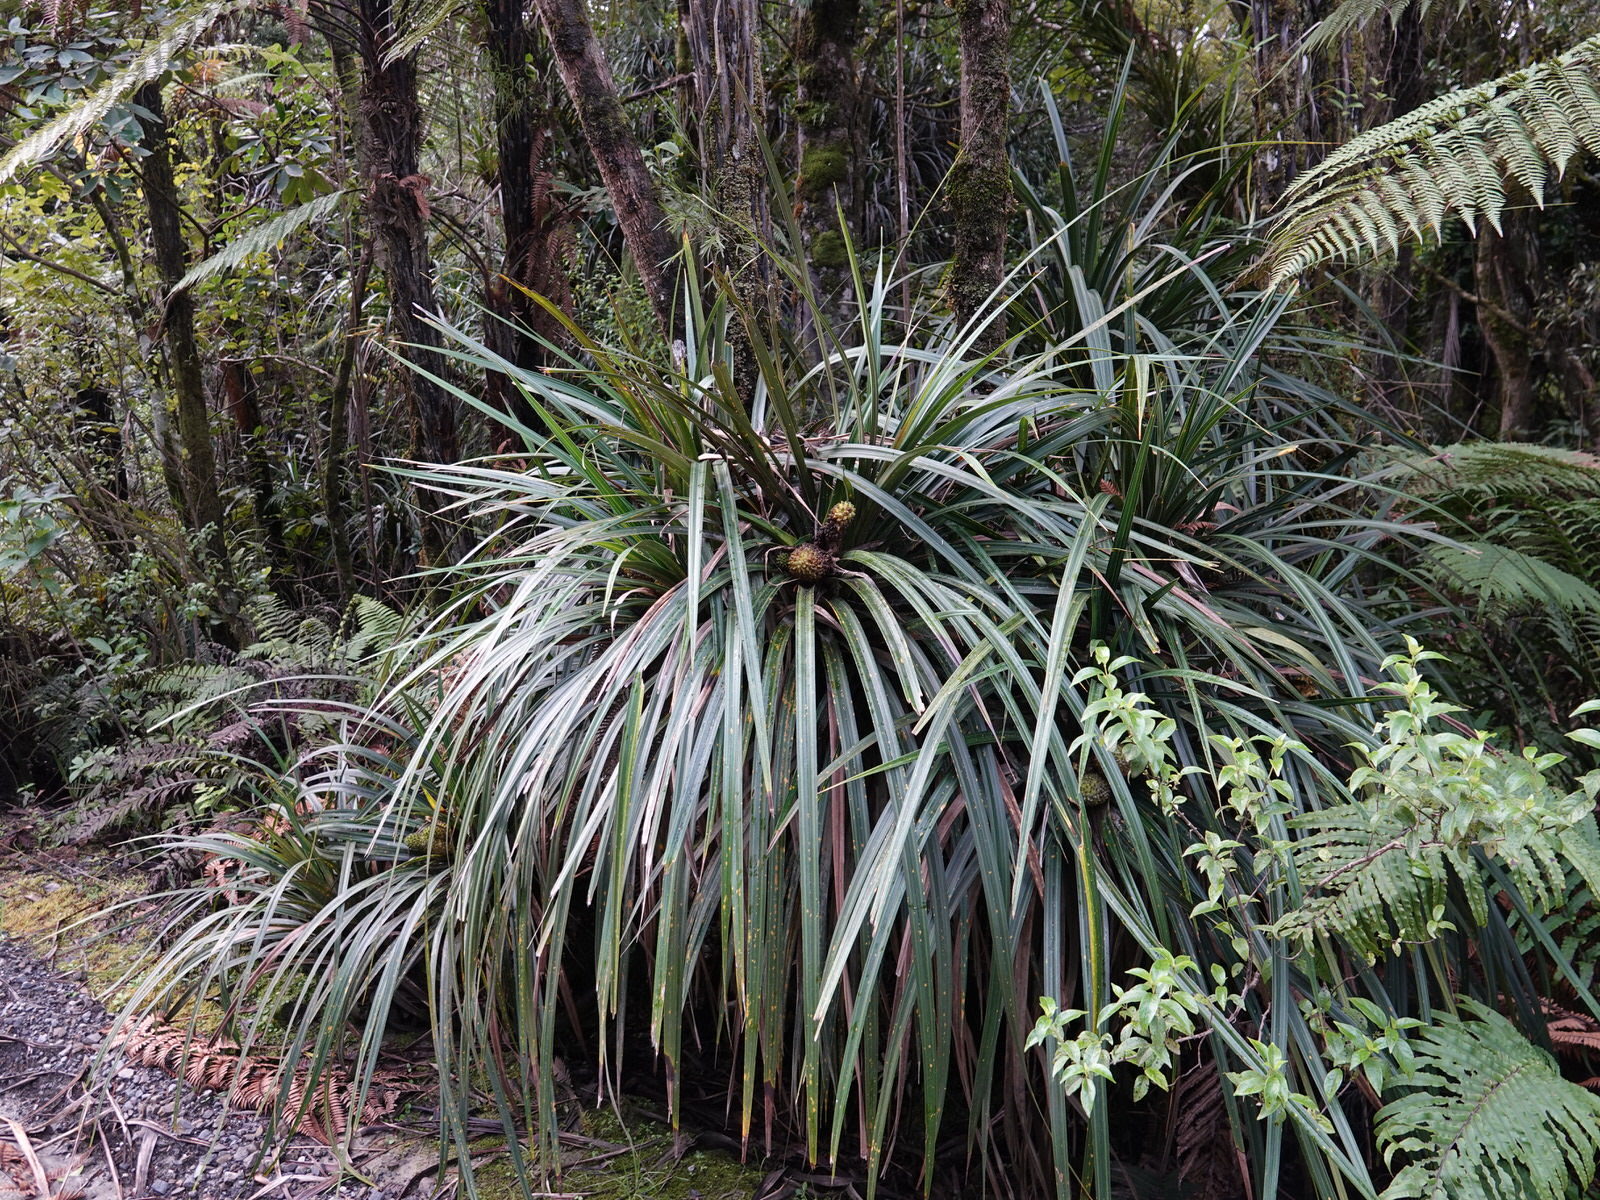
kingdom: Plantae
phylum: Tracheophyta
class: Liliopsida
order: Pandanales
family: Pandanaceae
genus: Freycinetia
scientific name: Freycinetia banksii
